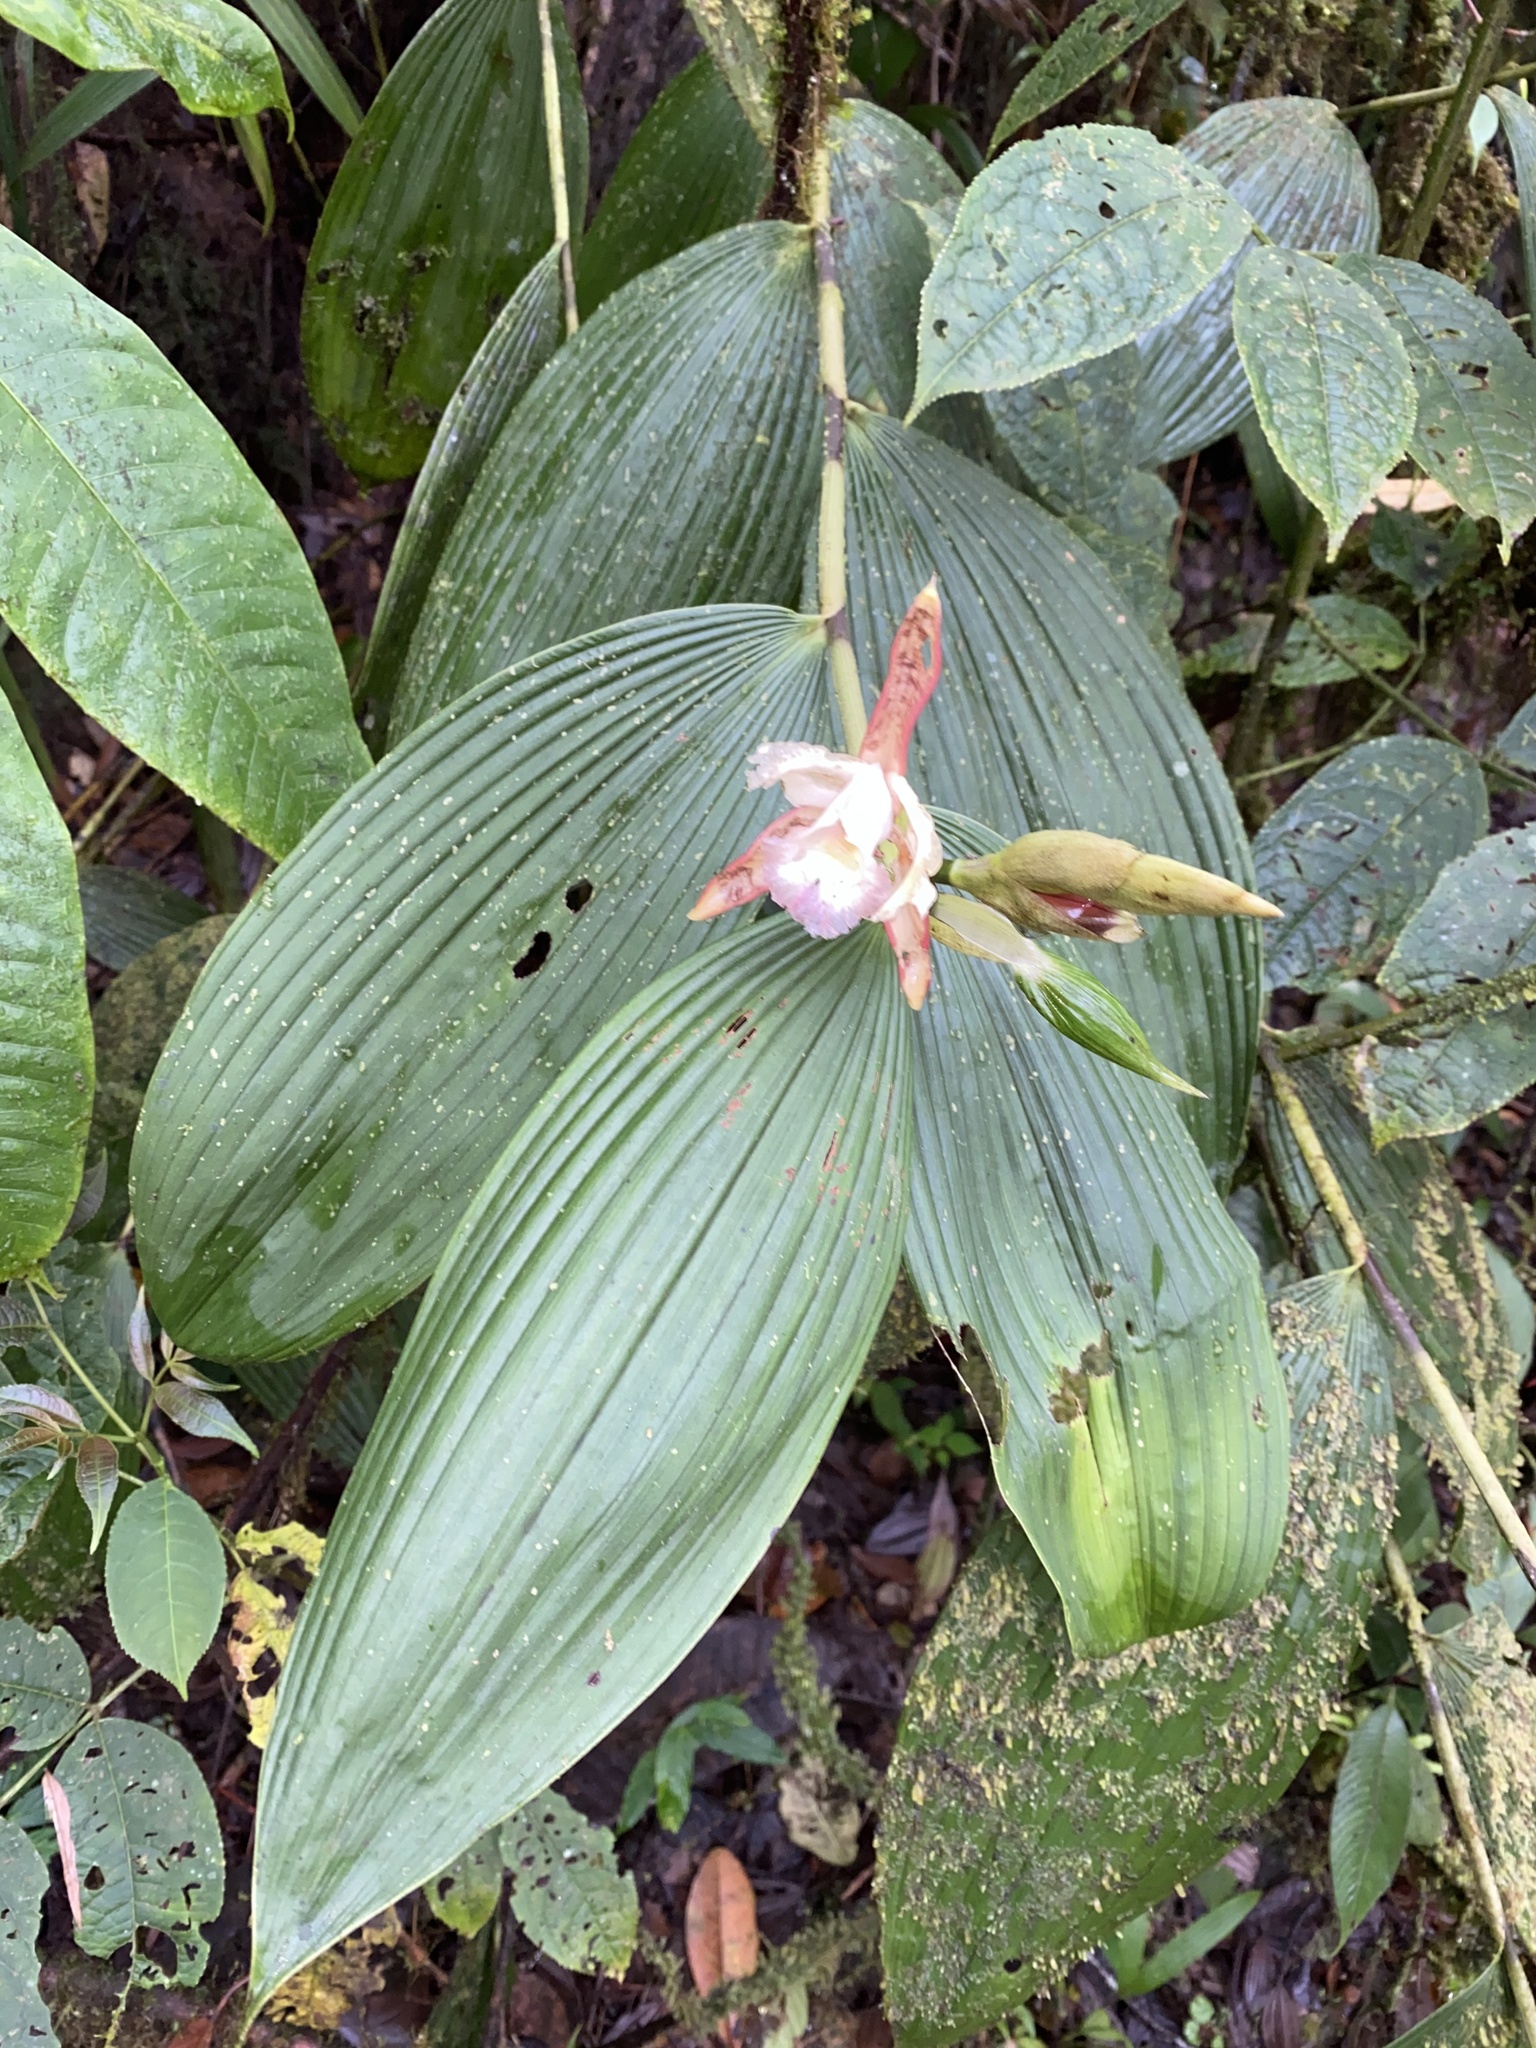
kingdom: Plantae
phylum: Tracheophyta
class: Liliopsida
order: Asparagales
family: Orchidaceae
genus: Sobralia
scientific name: Sobralia gloriosa
